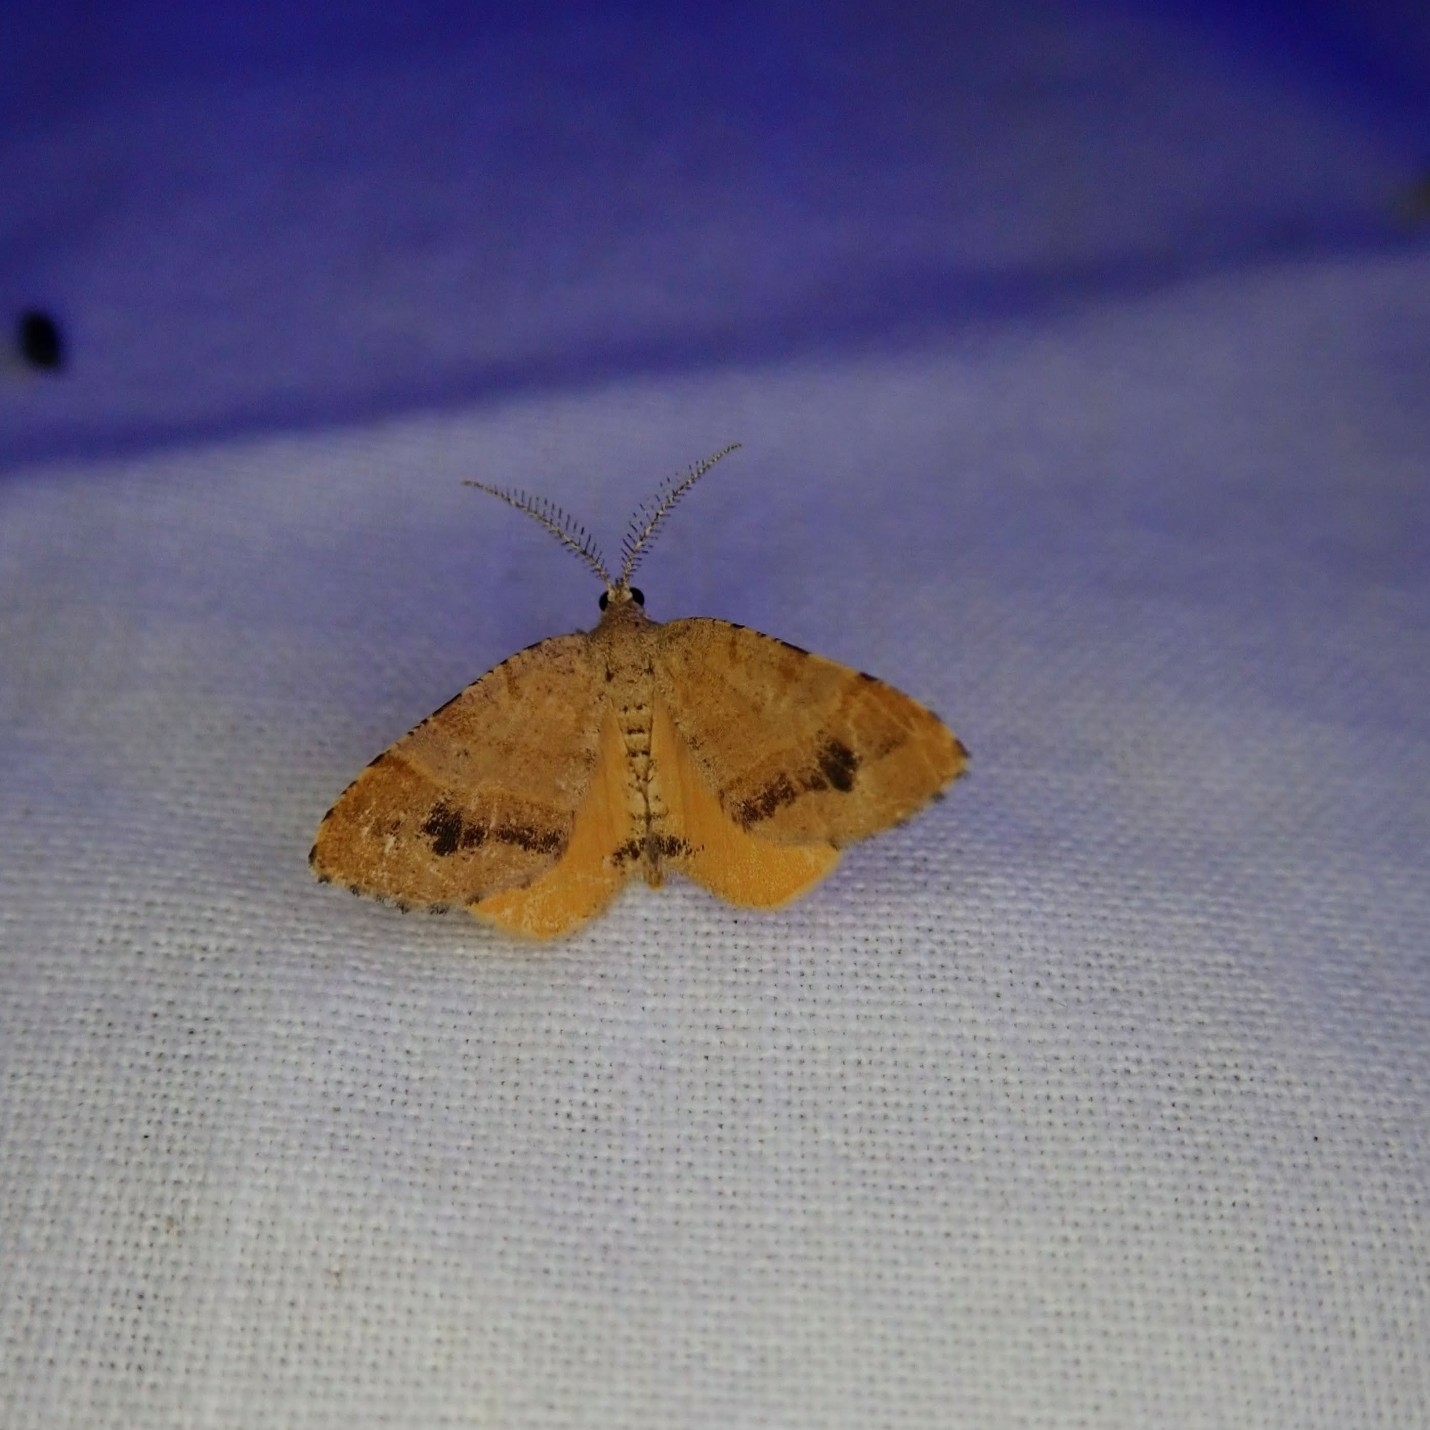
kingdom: Animalia
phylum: Arthropoda
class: Insecta
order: Lepidoptera
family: Geometridae
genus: Mellilla
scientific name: Mellilla xanthometata
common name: Orange wing moth
